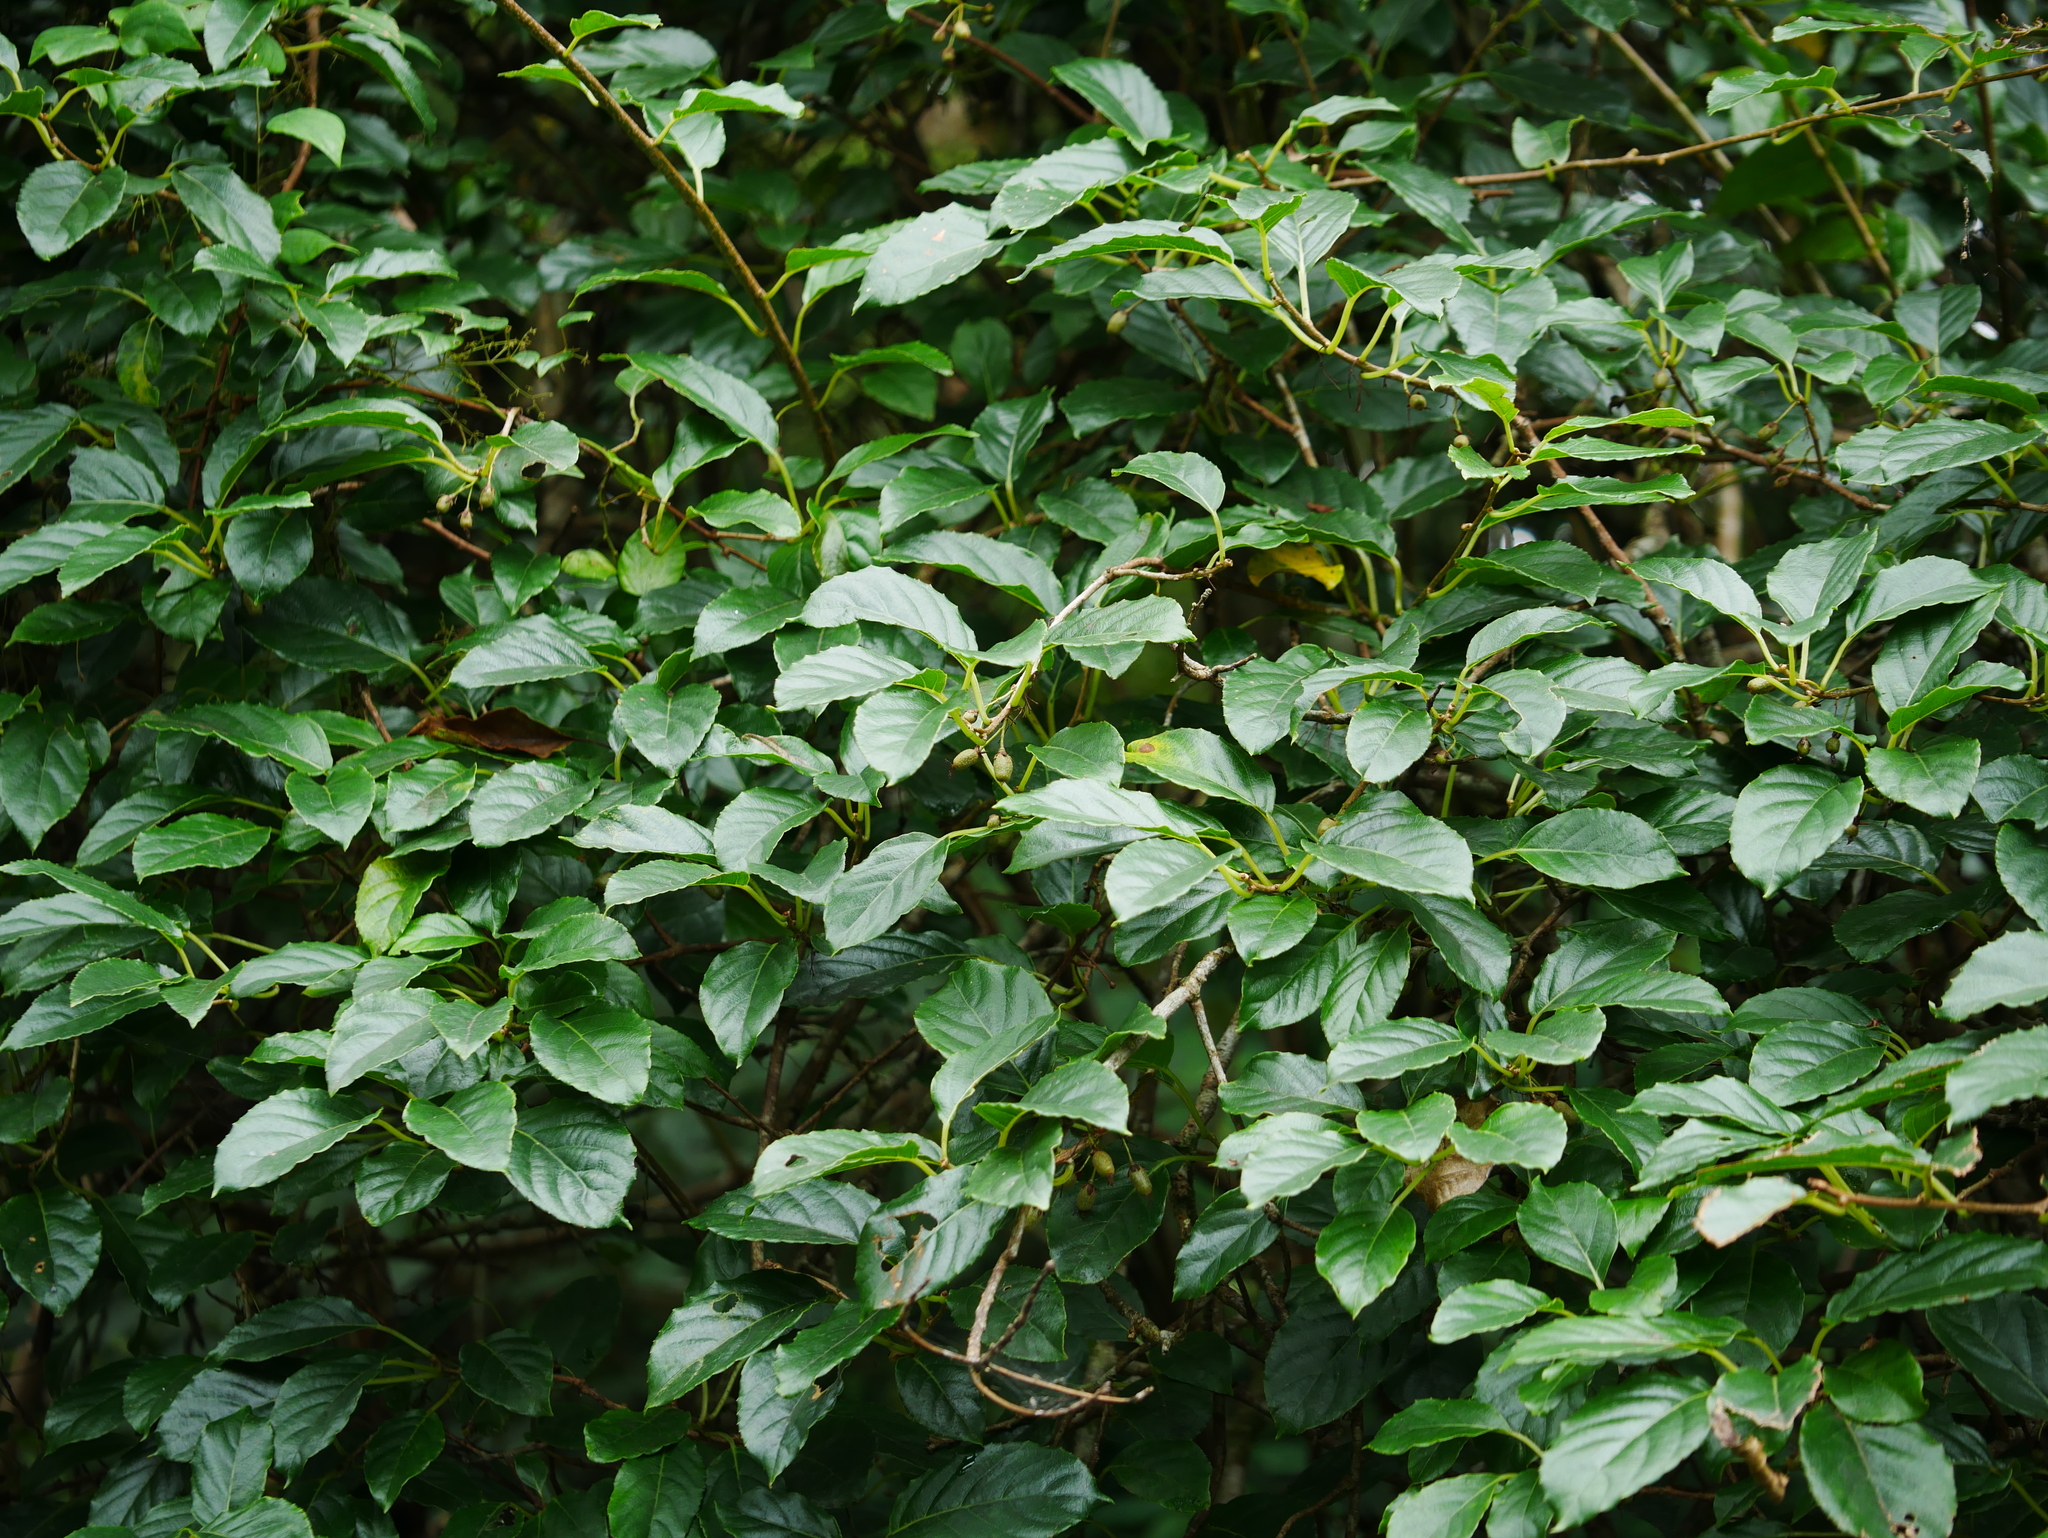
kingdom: Plantae
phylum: Tracheophyta
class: Magnoliopsida
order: Ericales
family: Actinidiaceae
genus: Actinidia
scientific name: Actinidia callosa
